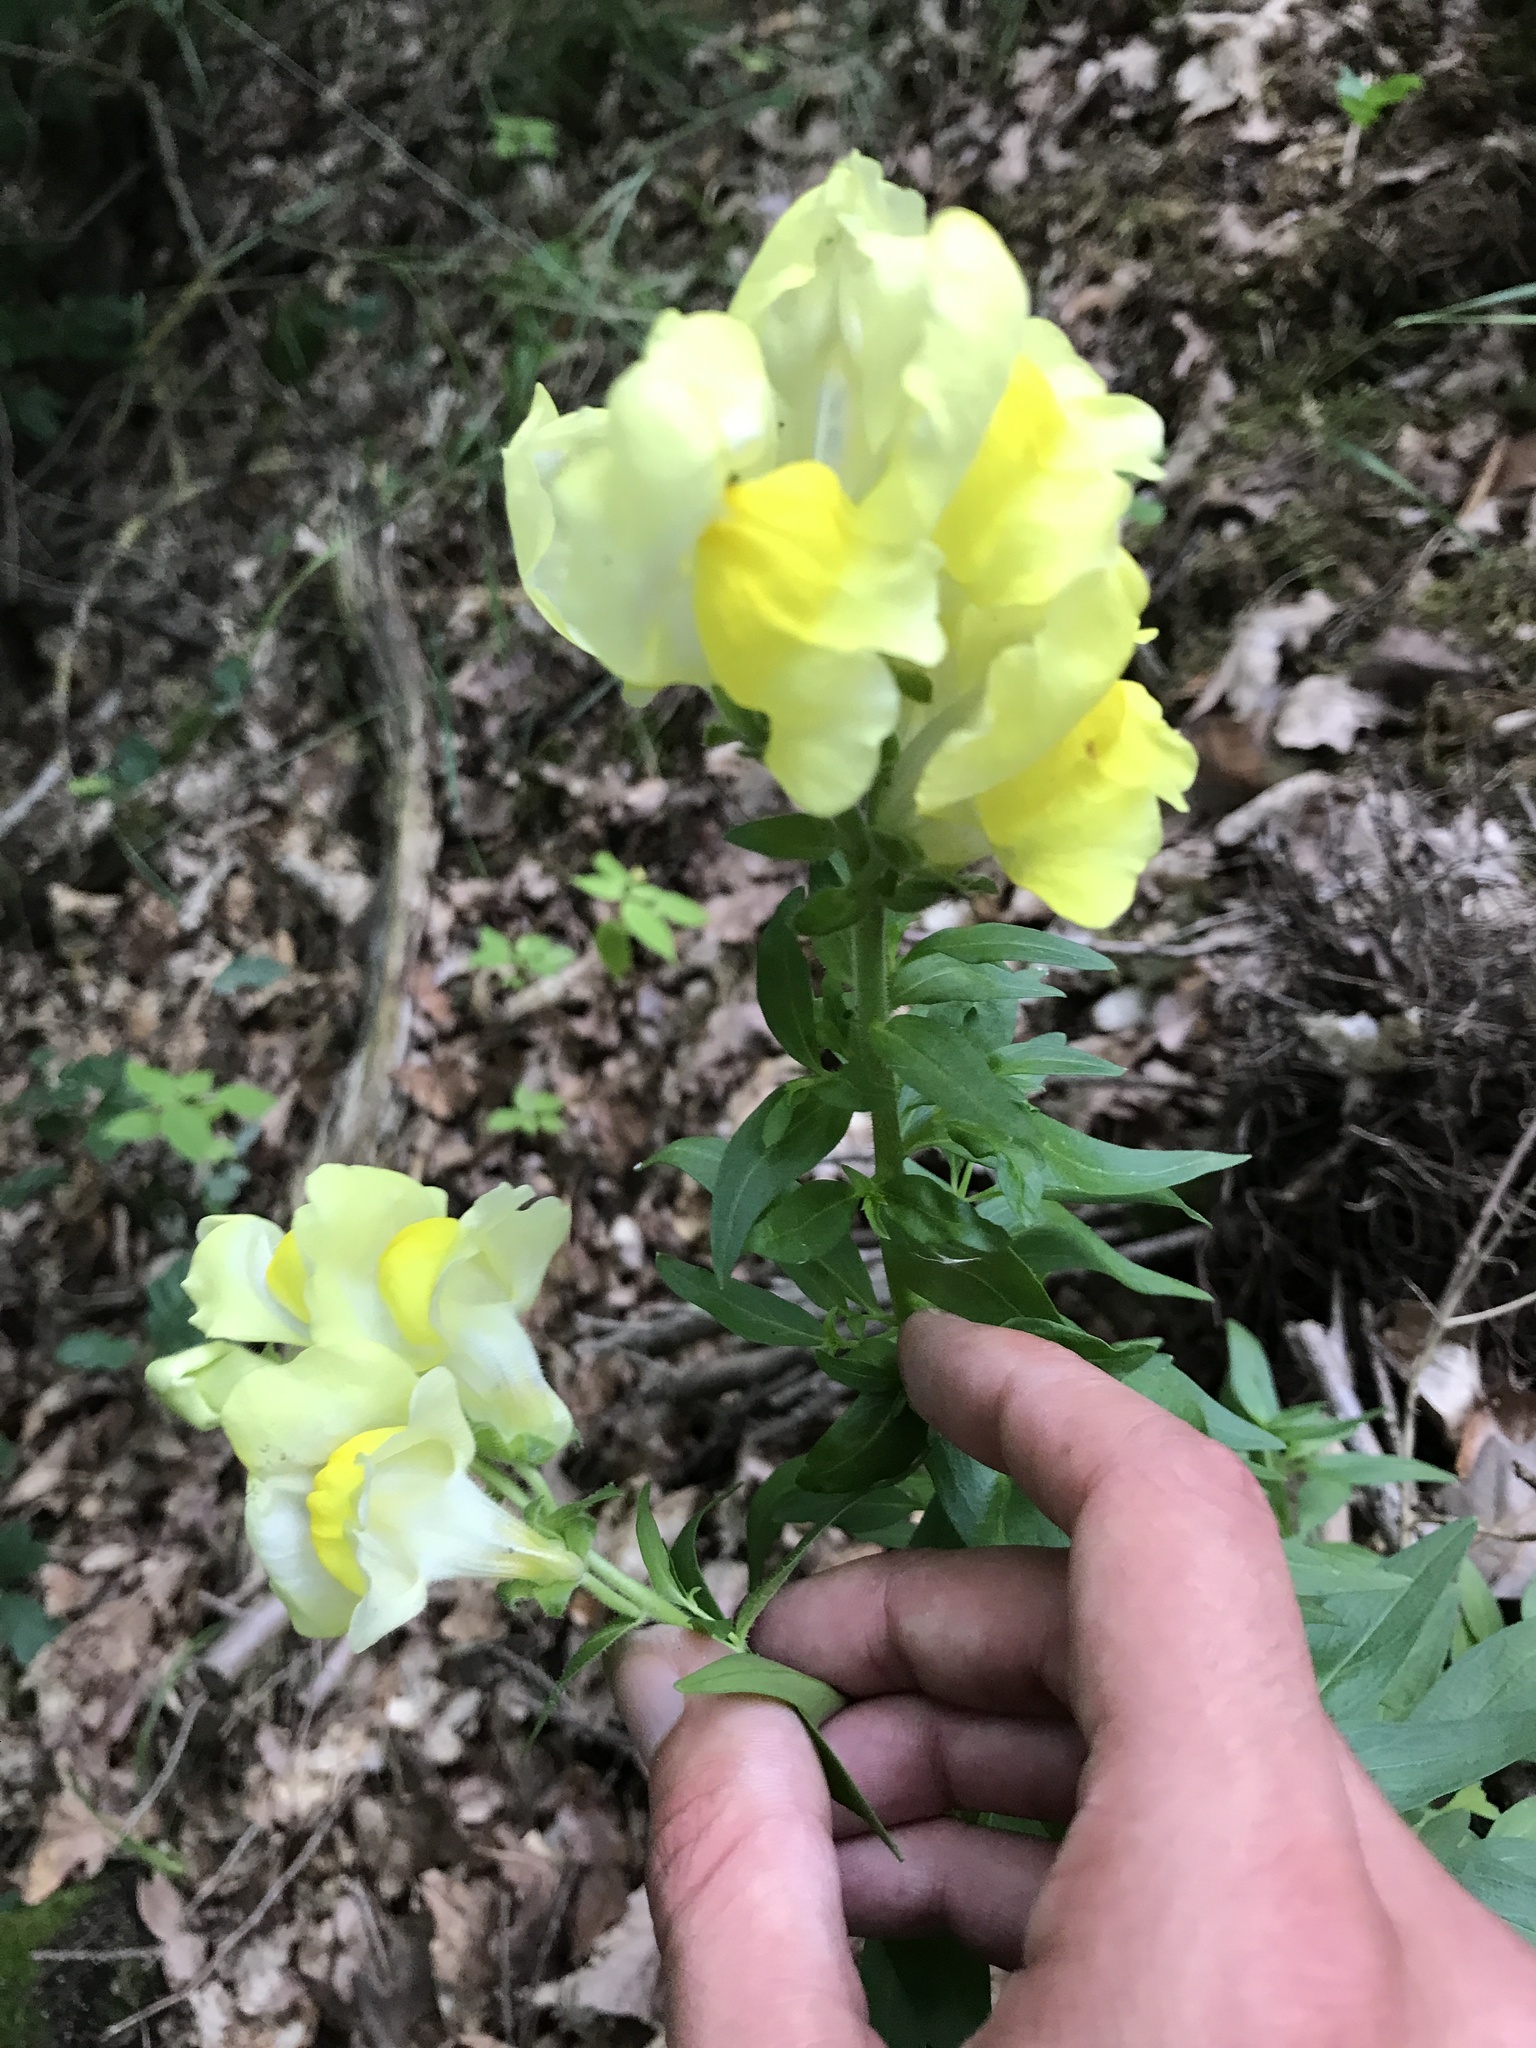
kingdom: Plantae
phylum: Tracheophyta
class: Magnoliopsida
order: Lamiales
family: Plantaginaceae
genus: Linaria
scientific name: Linaria vulgaris
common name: Butter and eggs
